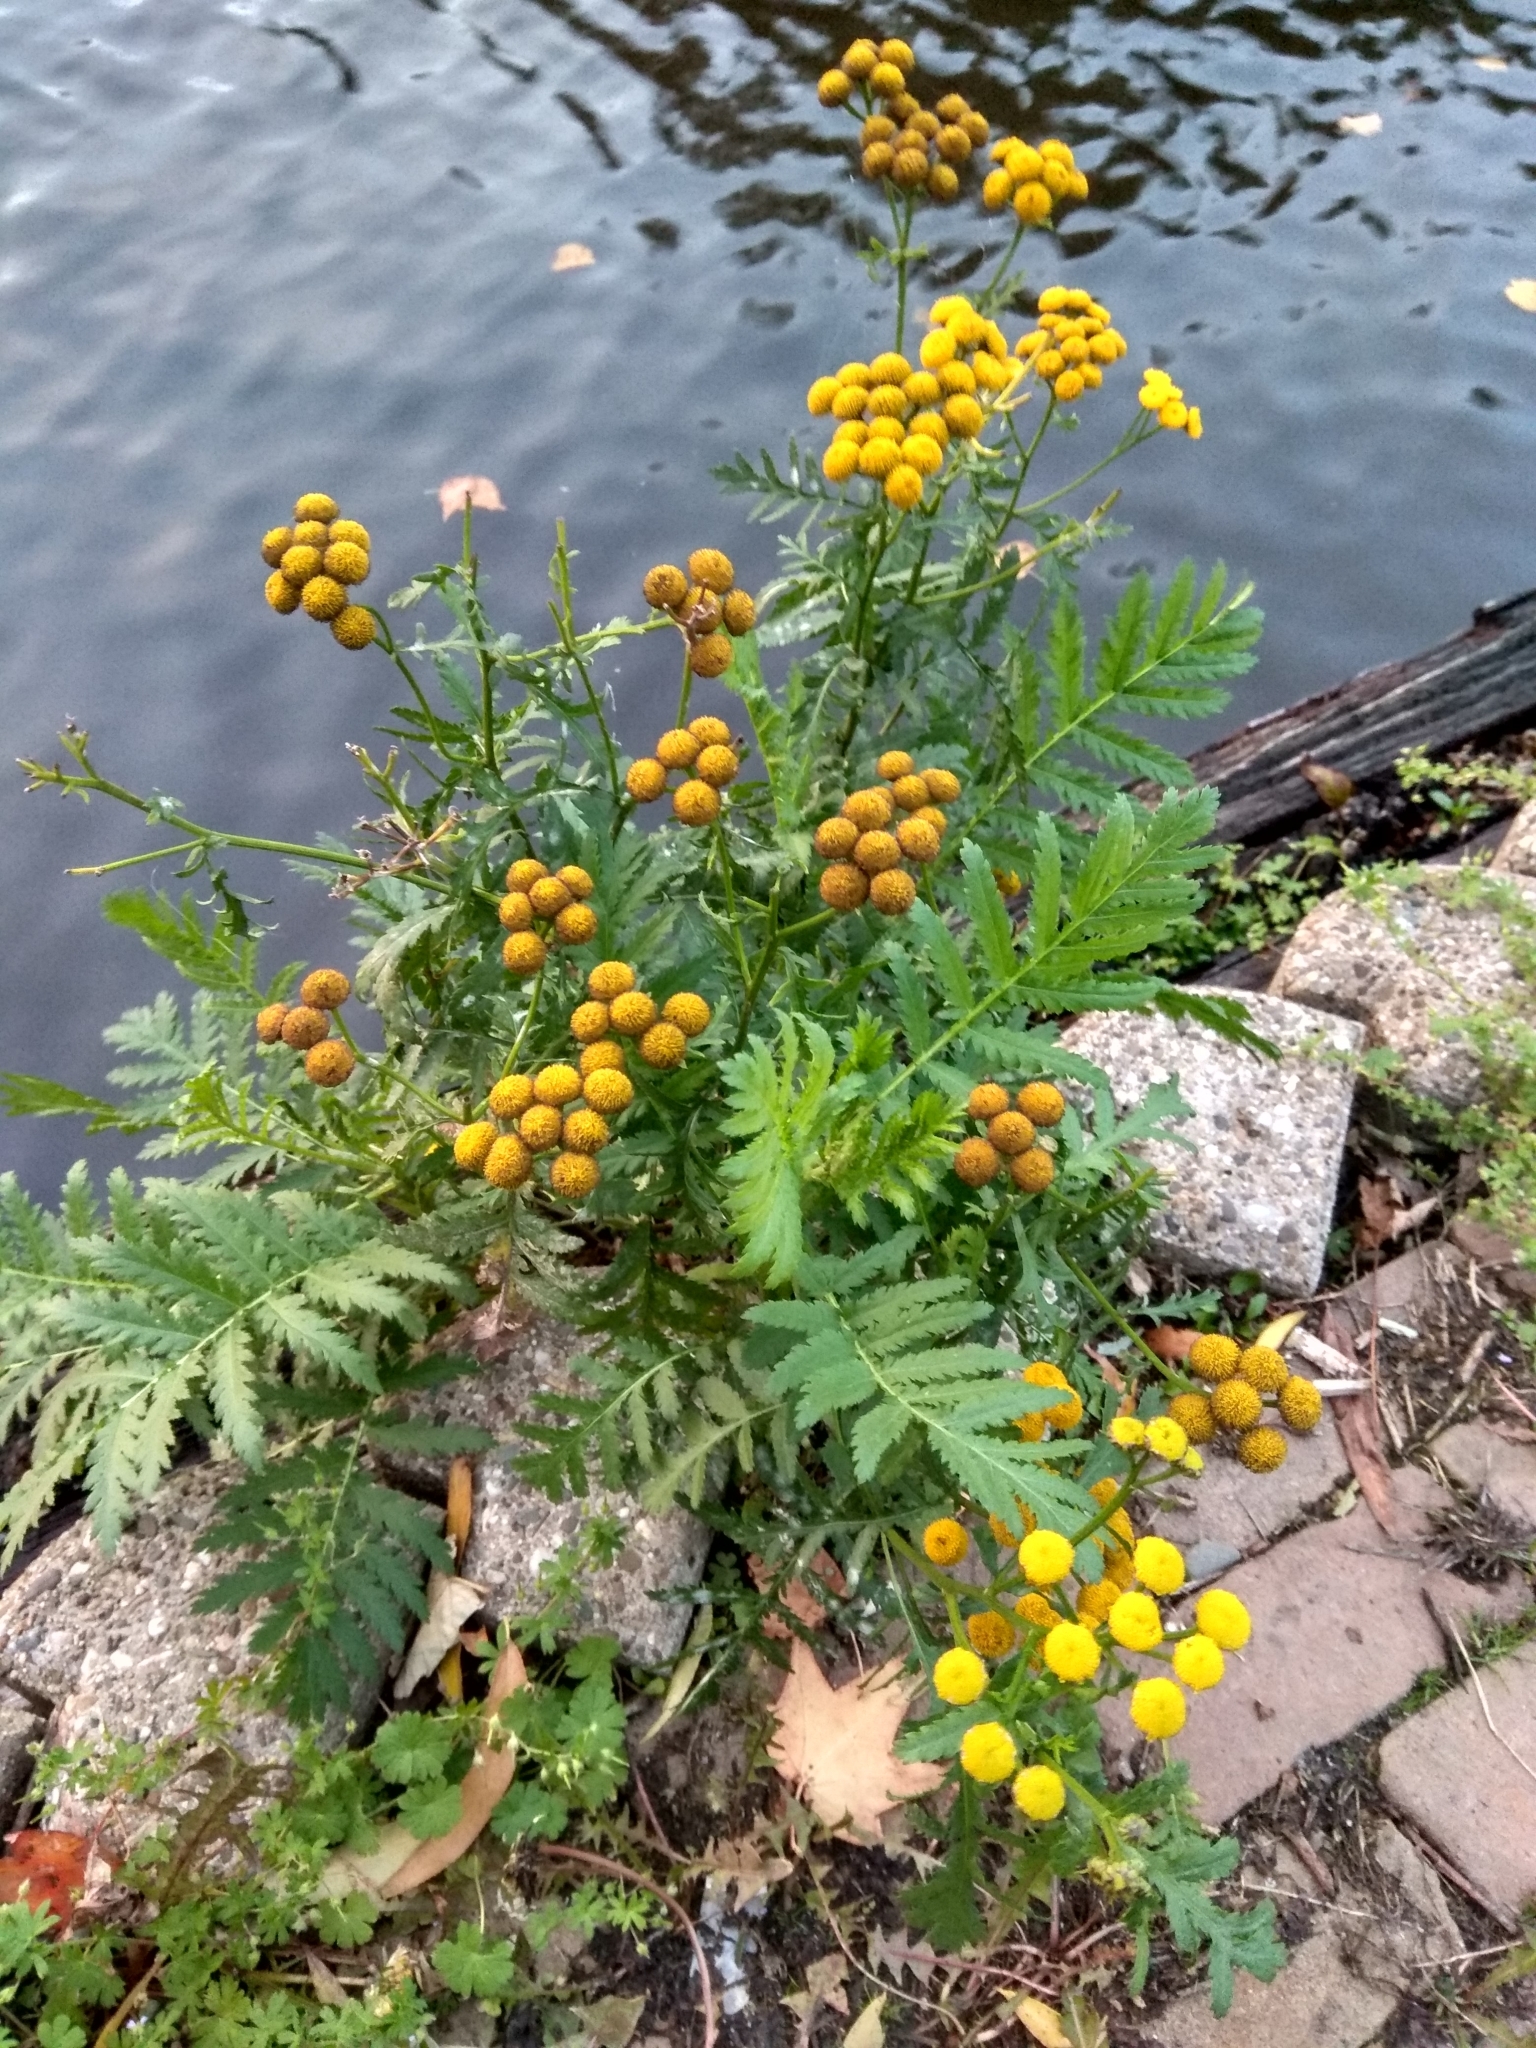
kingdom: Plantae
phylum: Tracheophyta
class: Magnoliopsida
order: Asterales
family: Asteraceae
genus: Tanacetum
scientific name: Tanacetum vulgare
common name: Common tansy
